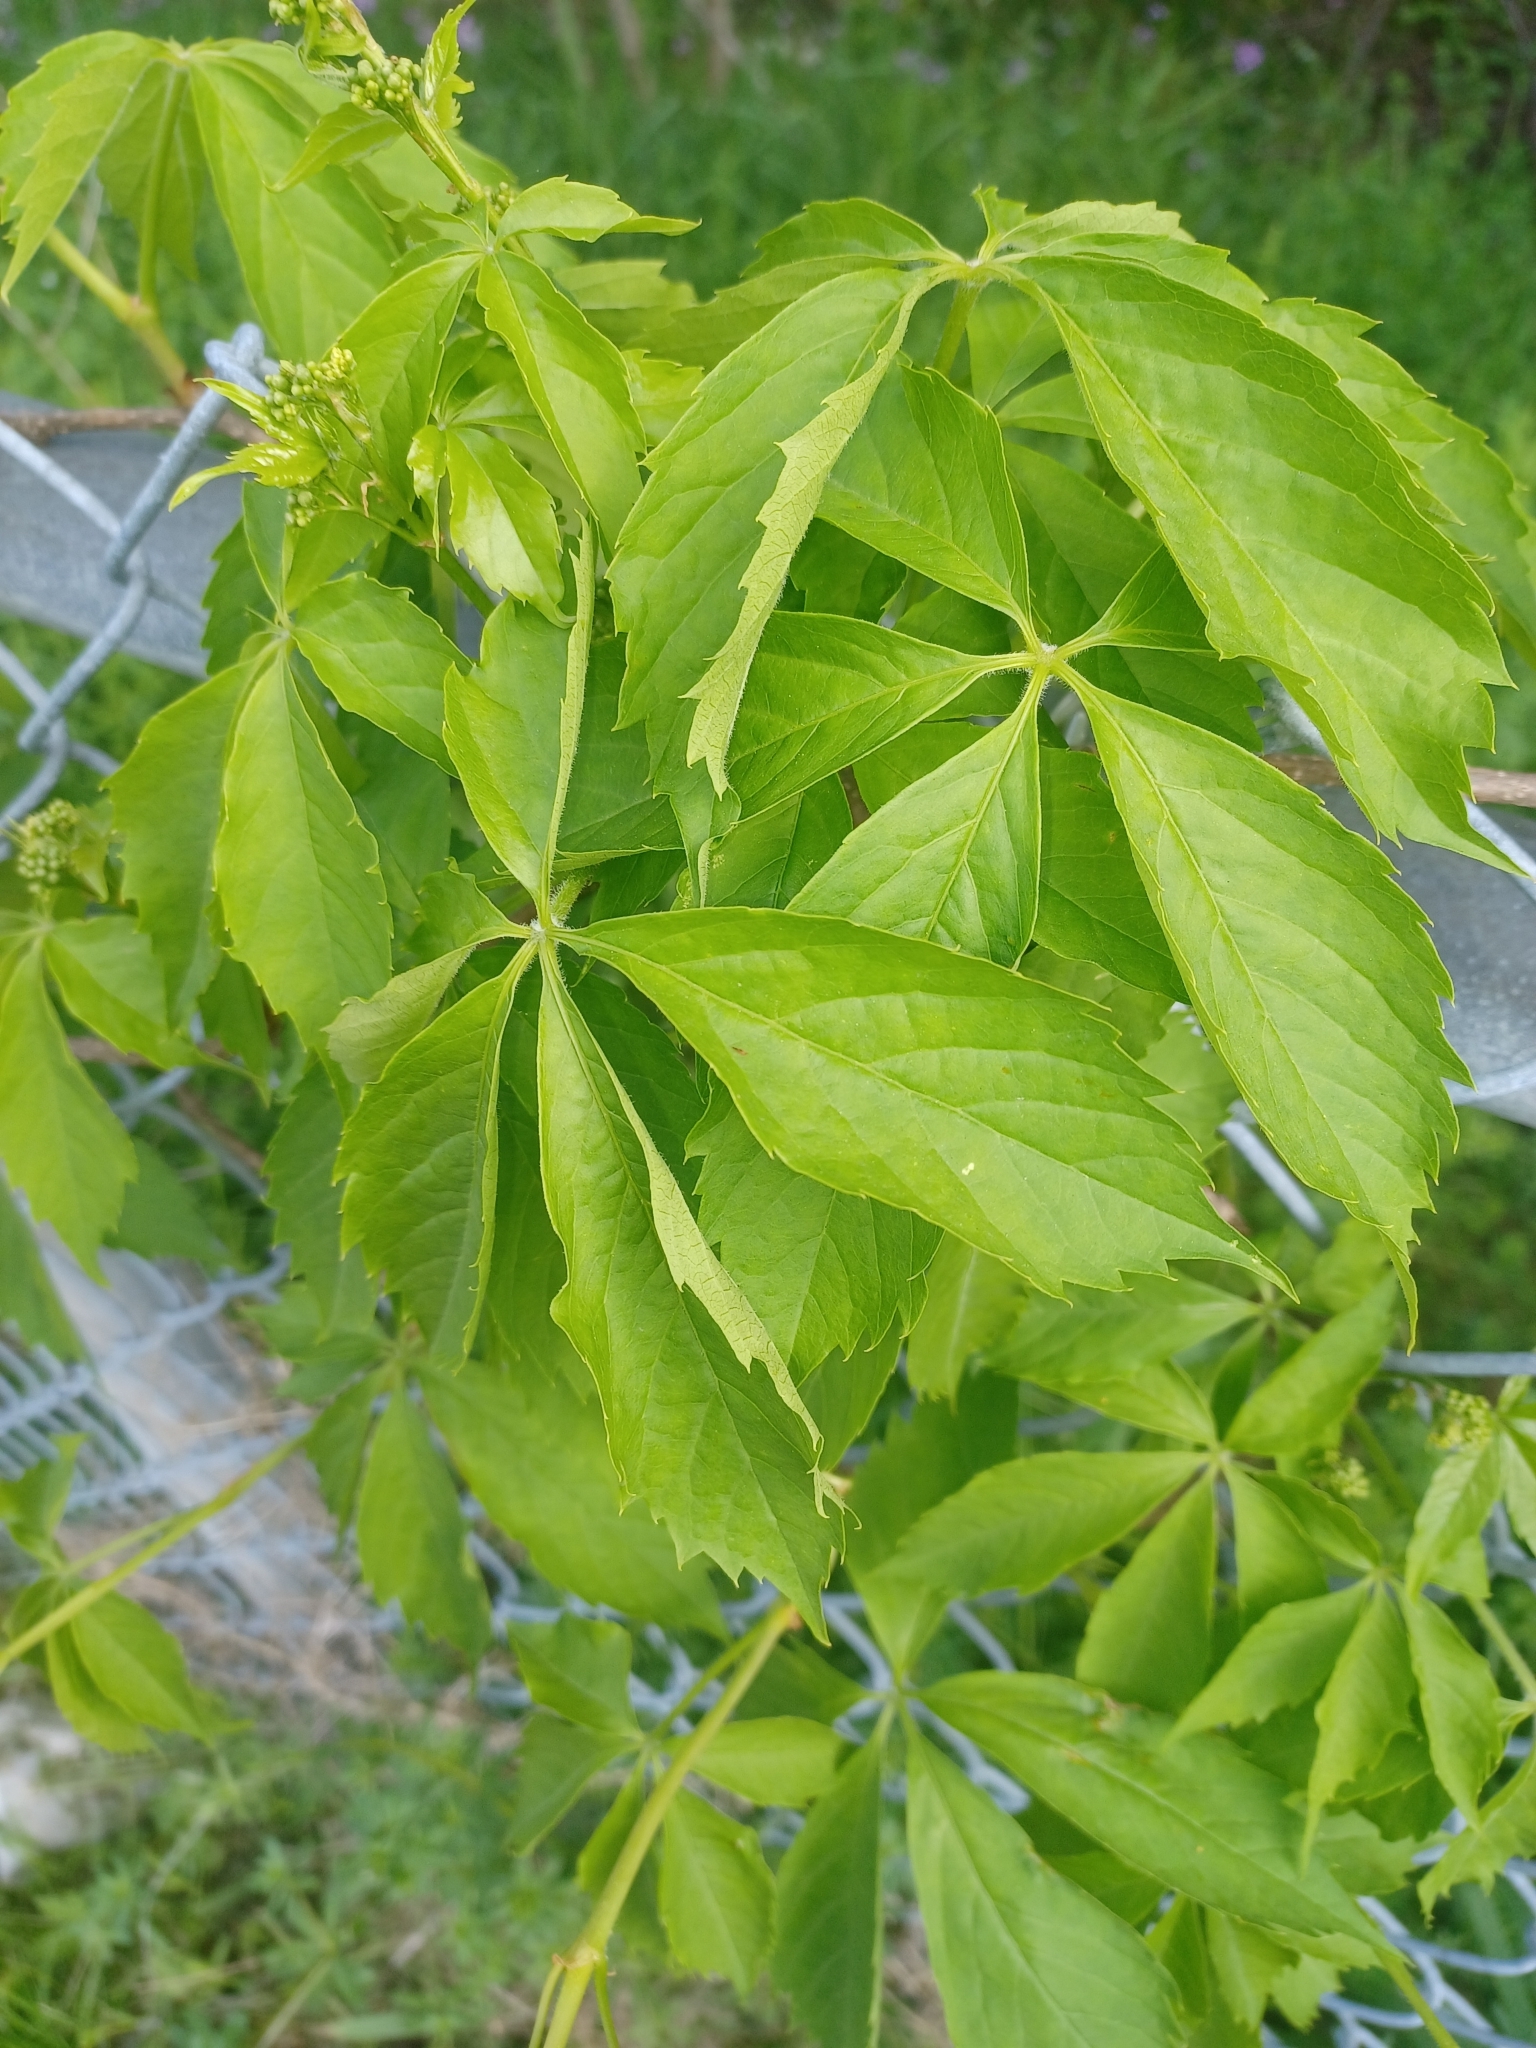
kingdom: Plantae
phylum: Tracheophyta
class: Magnoliopsida
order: Vitales
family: Vitaceae
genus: Parthenocissus
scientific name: Parthenocissus quinquefolia
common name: Virginia-creeper
